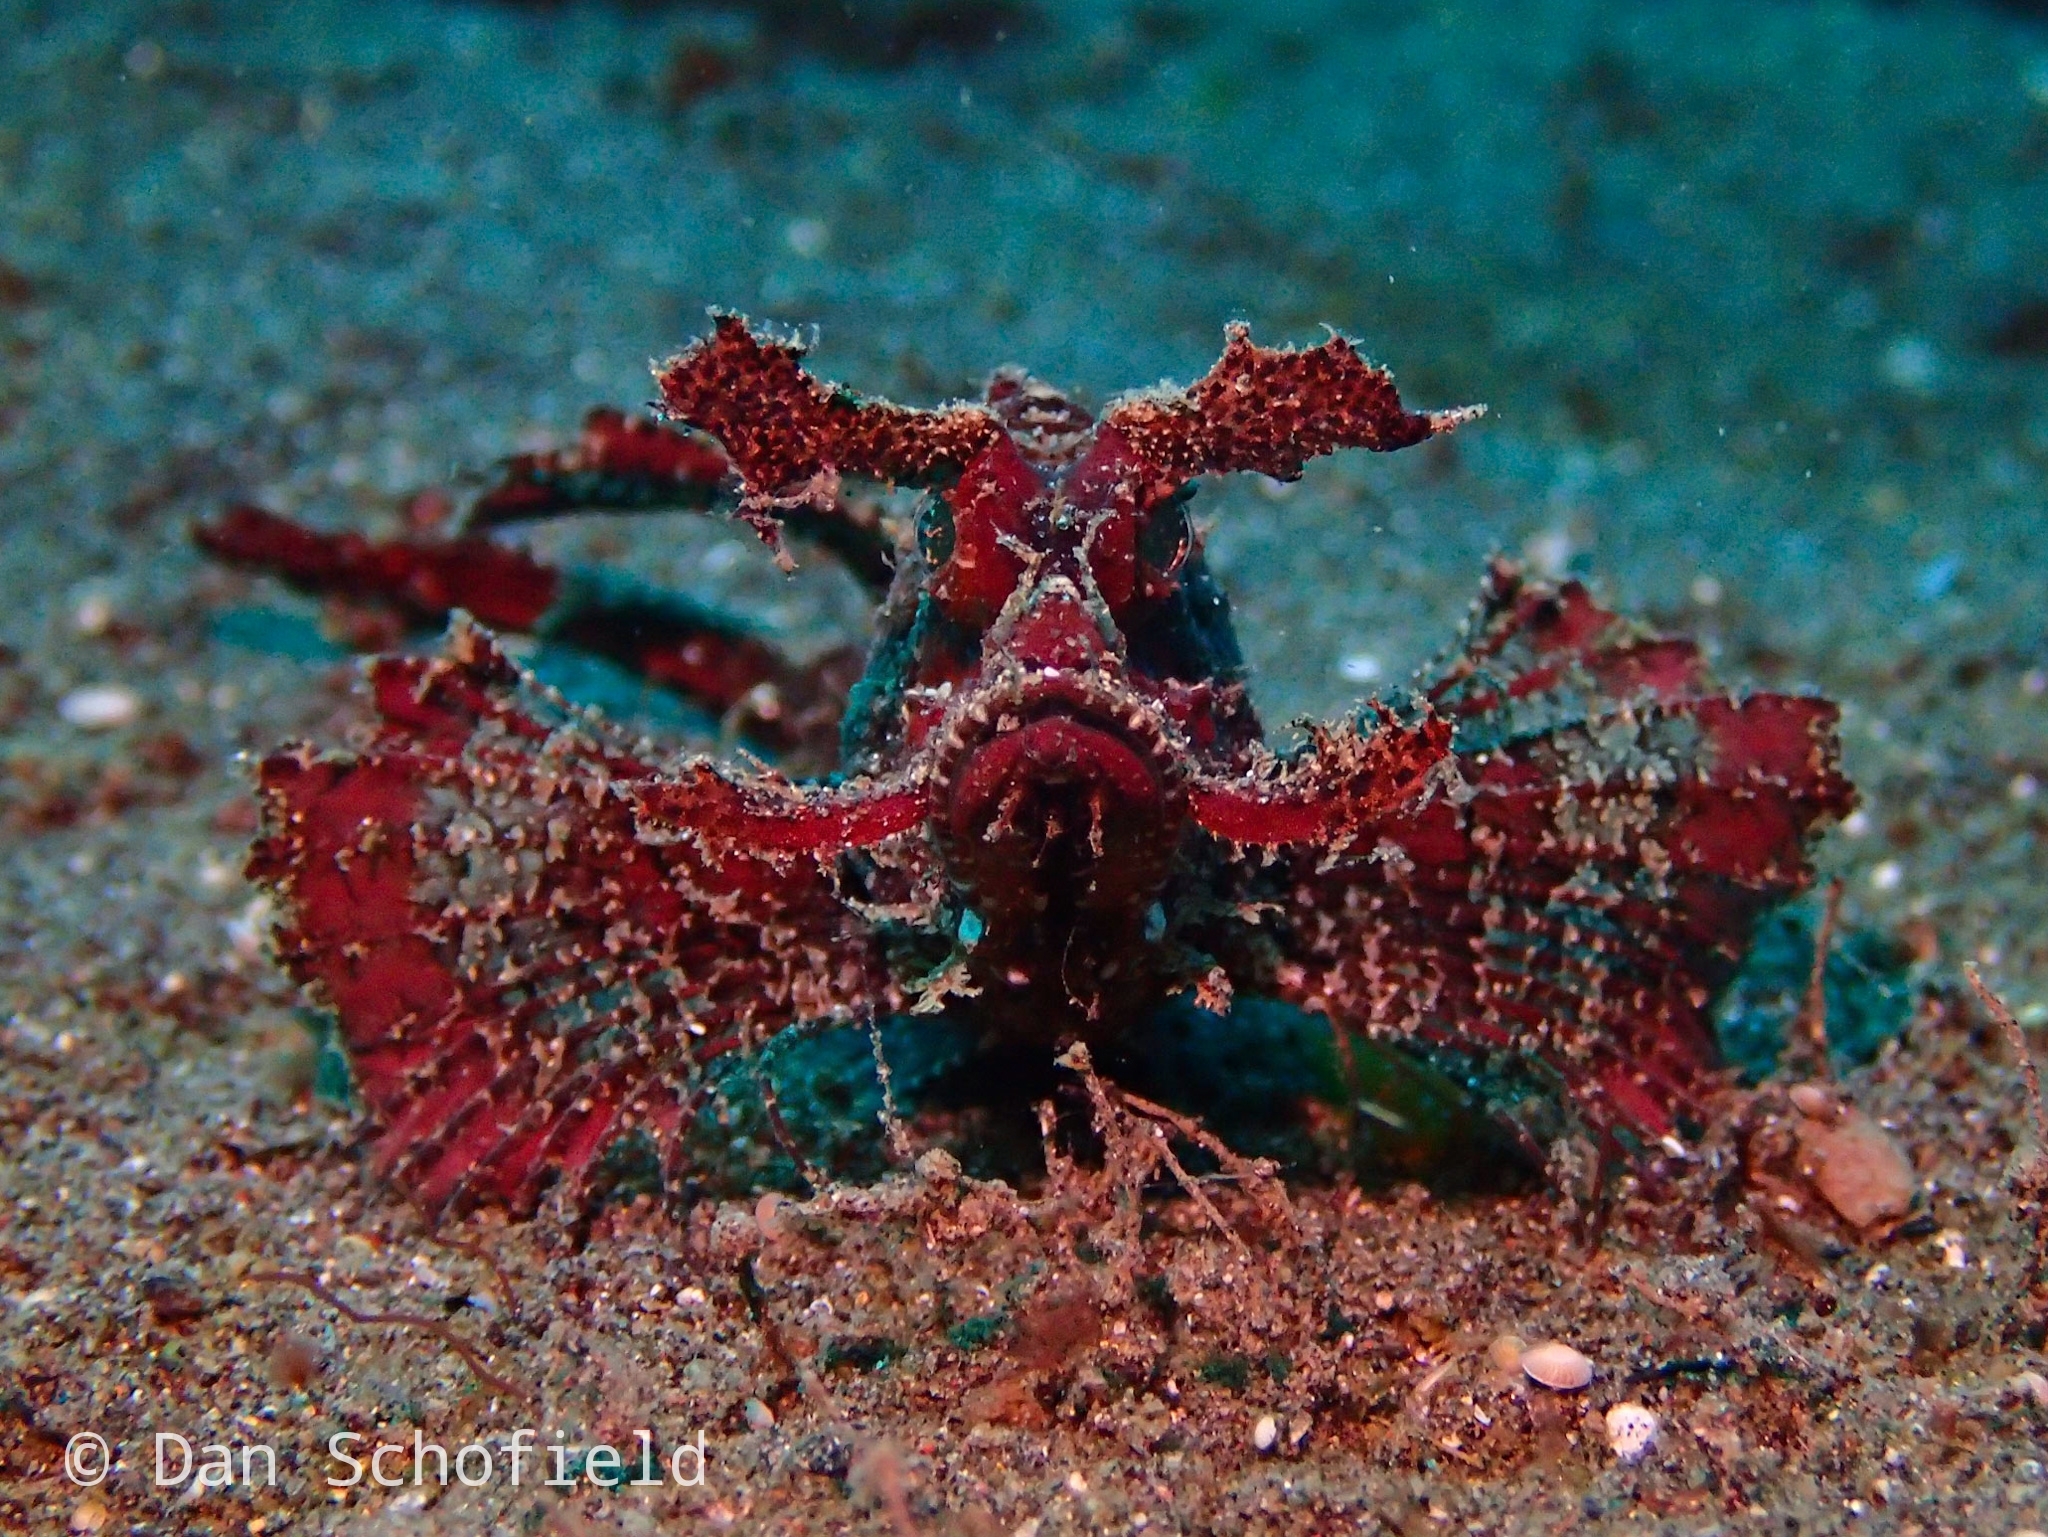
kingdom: Animalia
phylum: Chordata
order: Scorpaeniformes
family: Scorpaenidae
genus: Pteroidichthys
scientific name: Pteroidichthys amboinensis
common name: Ambon scorpionfish
